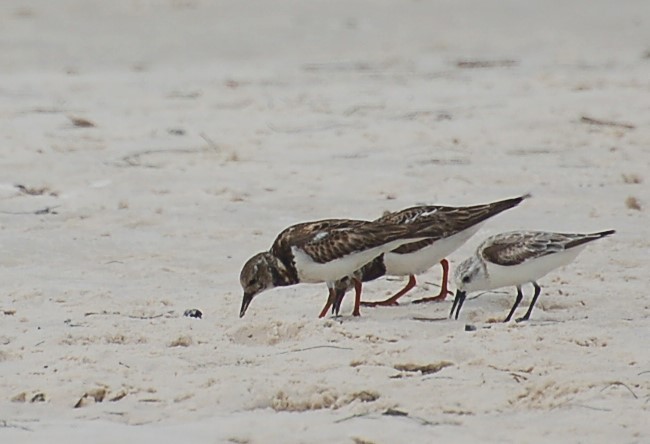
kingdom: Animalia
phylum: Chordata
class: Aves
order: Charadriiformes
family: Scolopacidae
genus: Arenaria
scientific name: Arenaria interpres
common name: Ruddy turnstone
